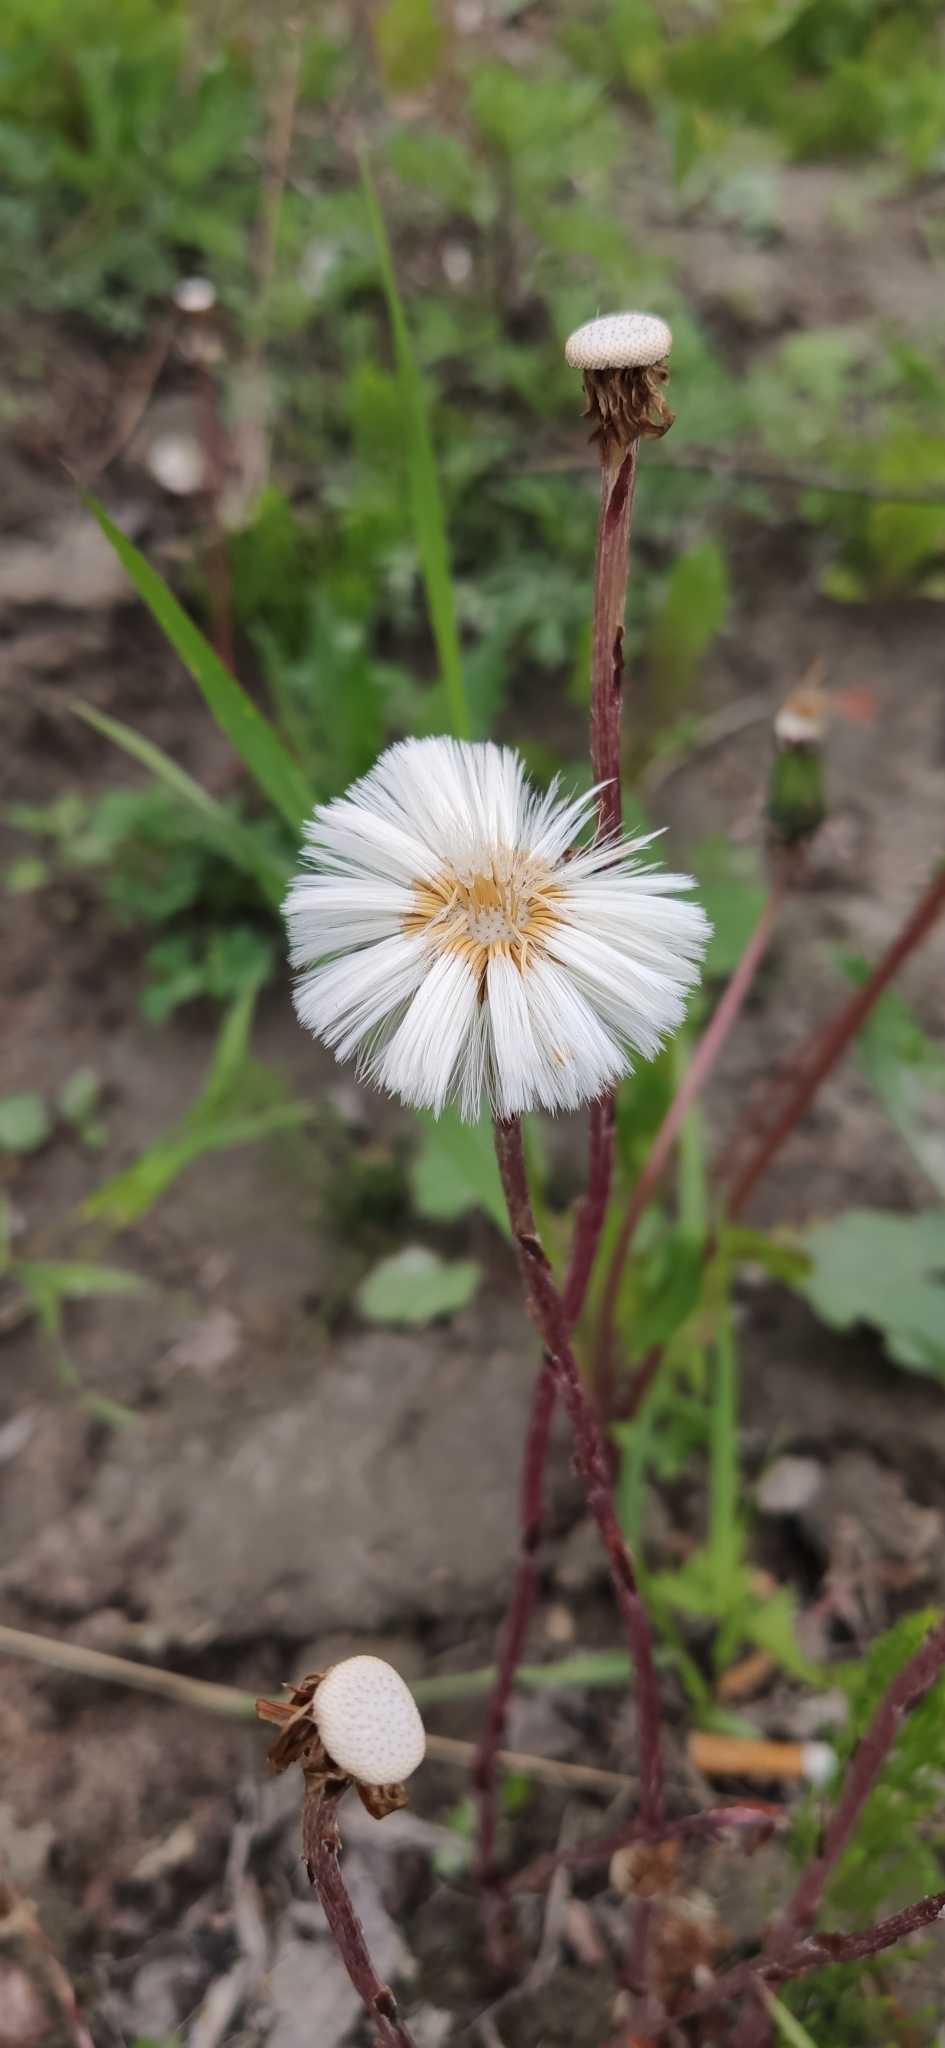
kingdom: Plantae
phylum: Tracheophyta
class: Magnoliopsida
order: Asterales
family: Asteraceae
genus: Tussilago
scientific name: Tussilago farfara
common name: Coltsfoot
